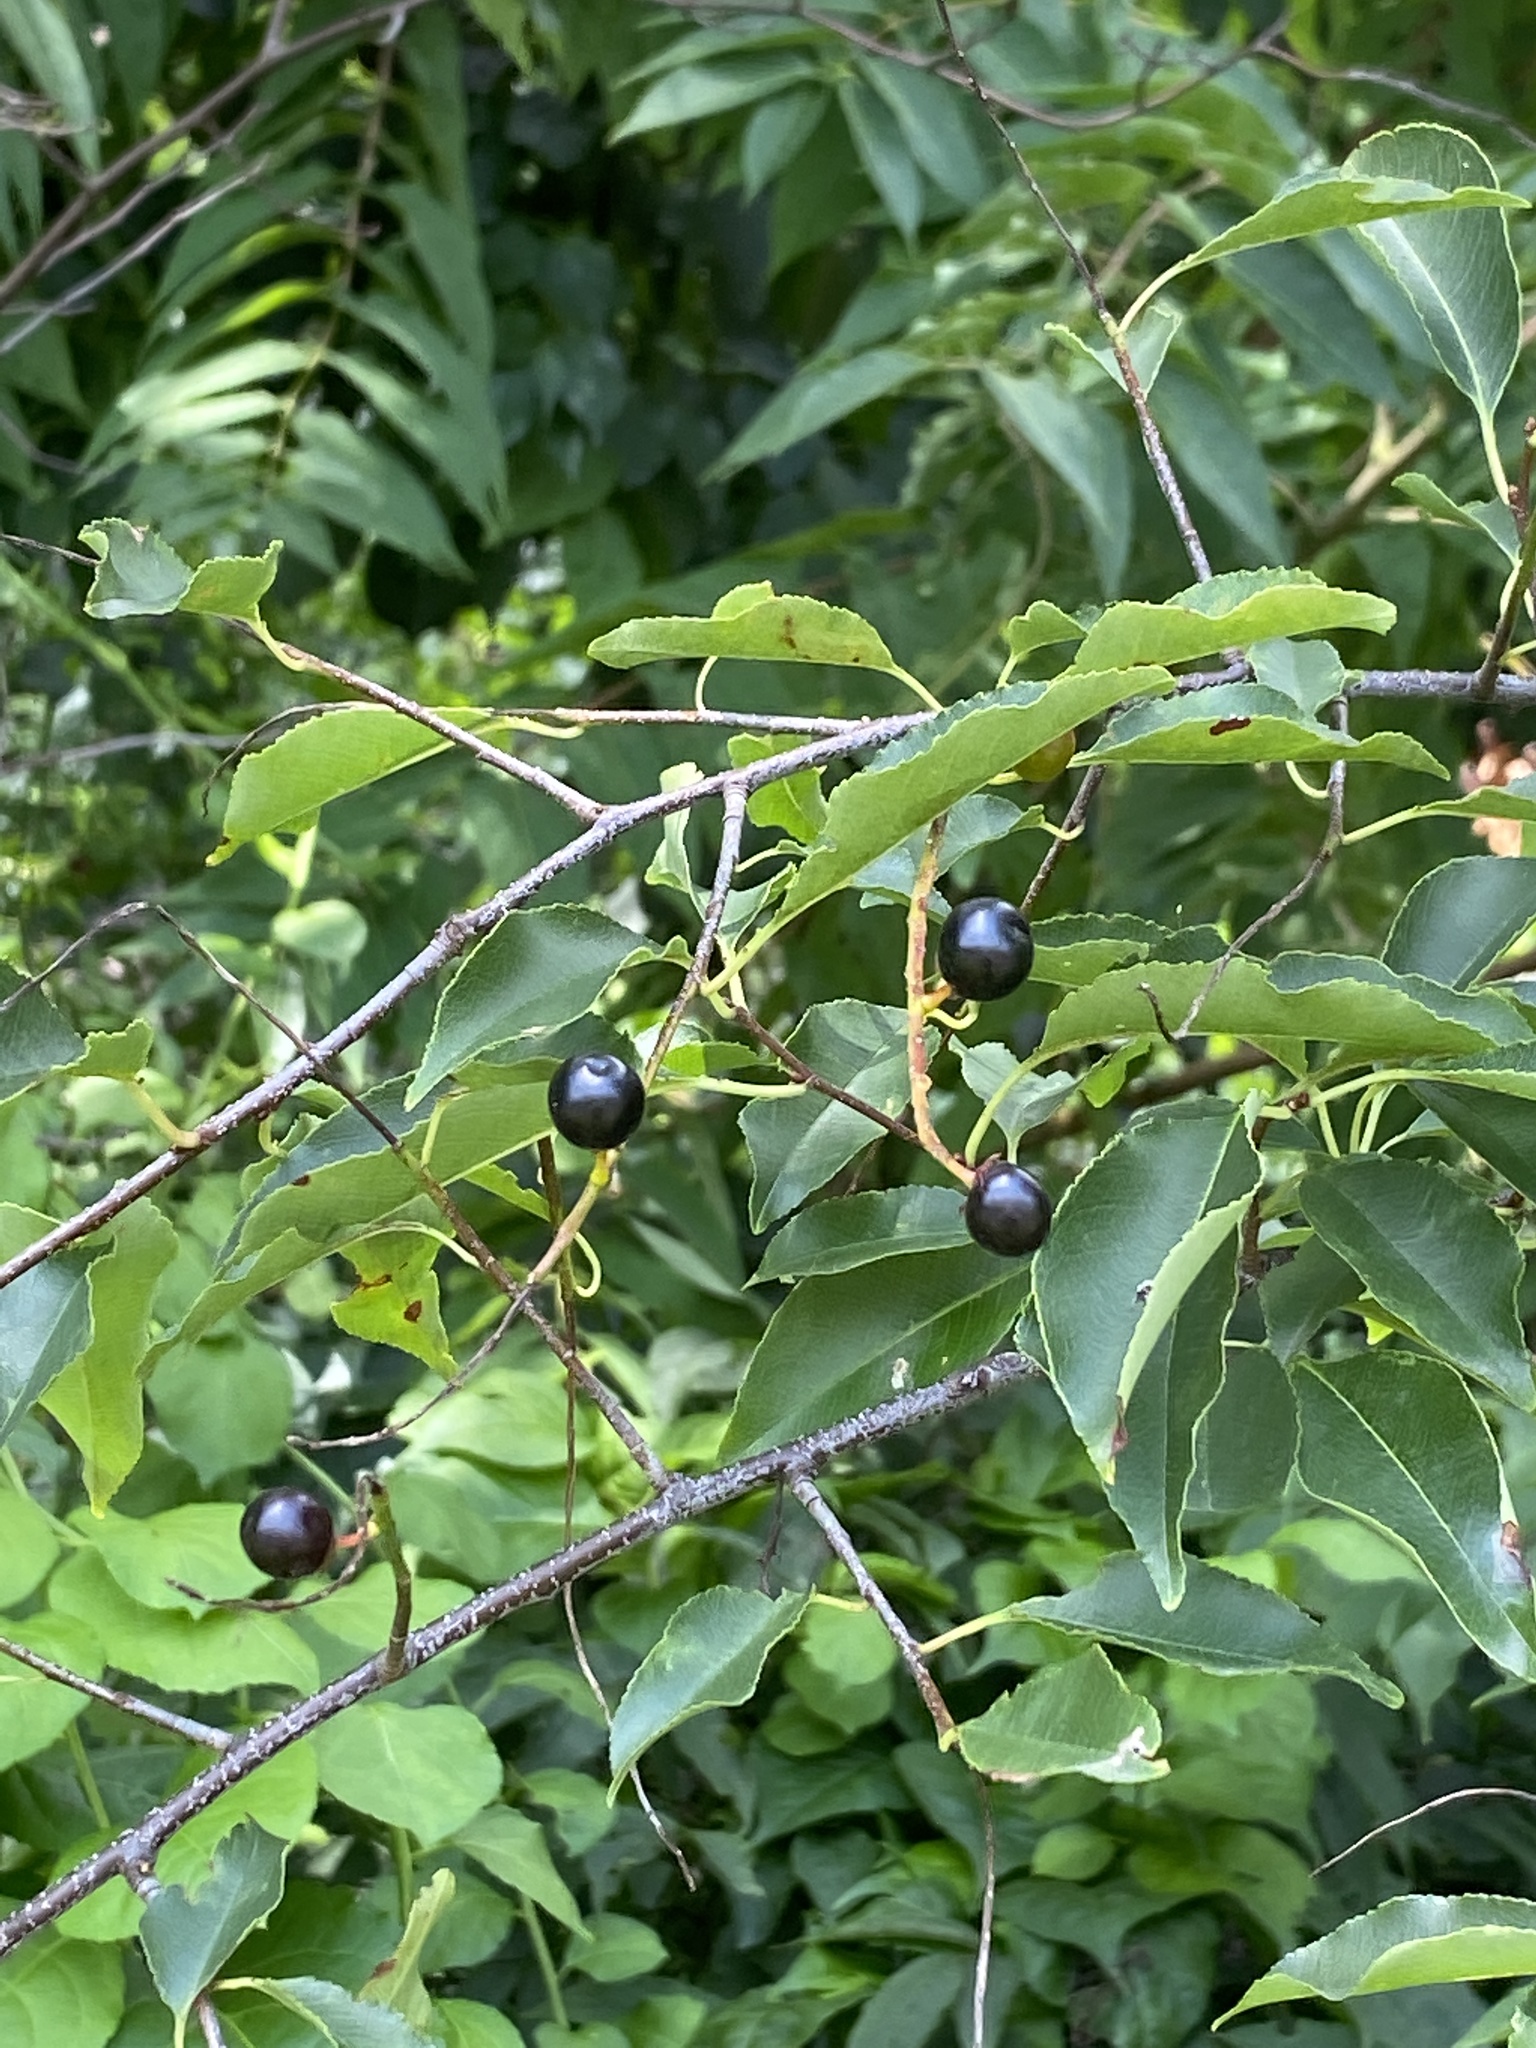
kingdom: Plantae
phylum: Tracheophyta
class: Magnoliopsida
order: Rosales
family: Rosaceae
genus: Prunus
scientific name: Prunus serotina
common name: Black cherry
